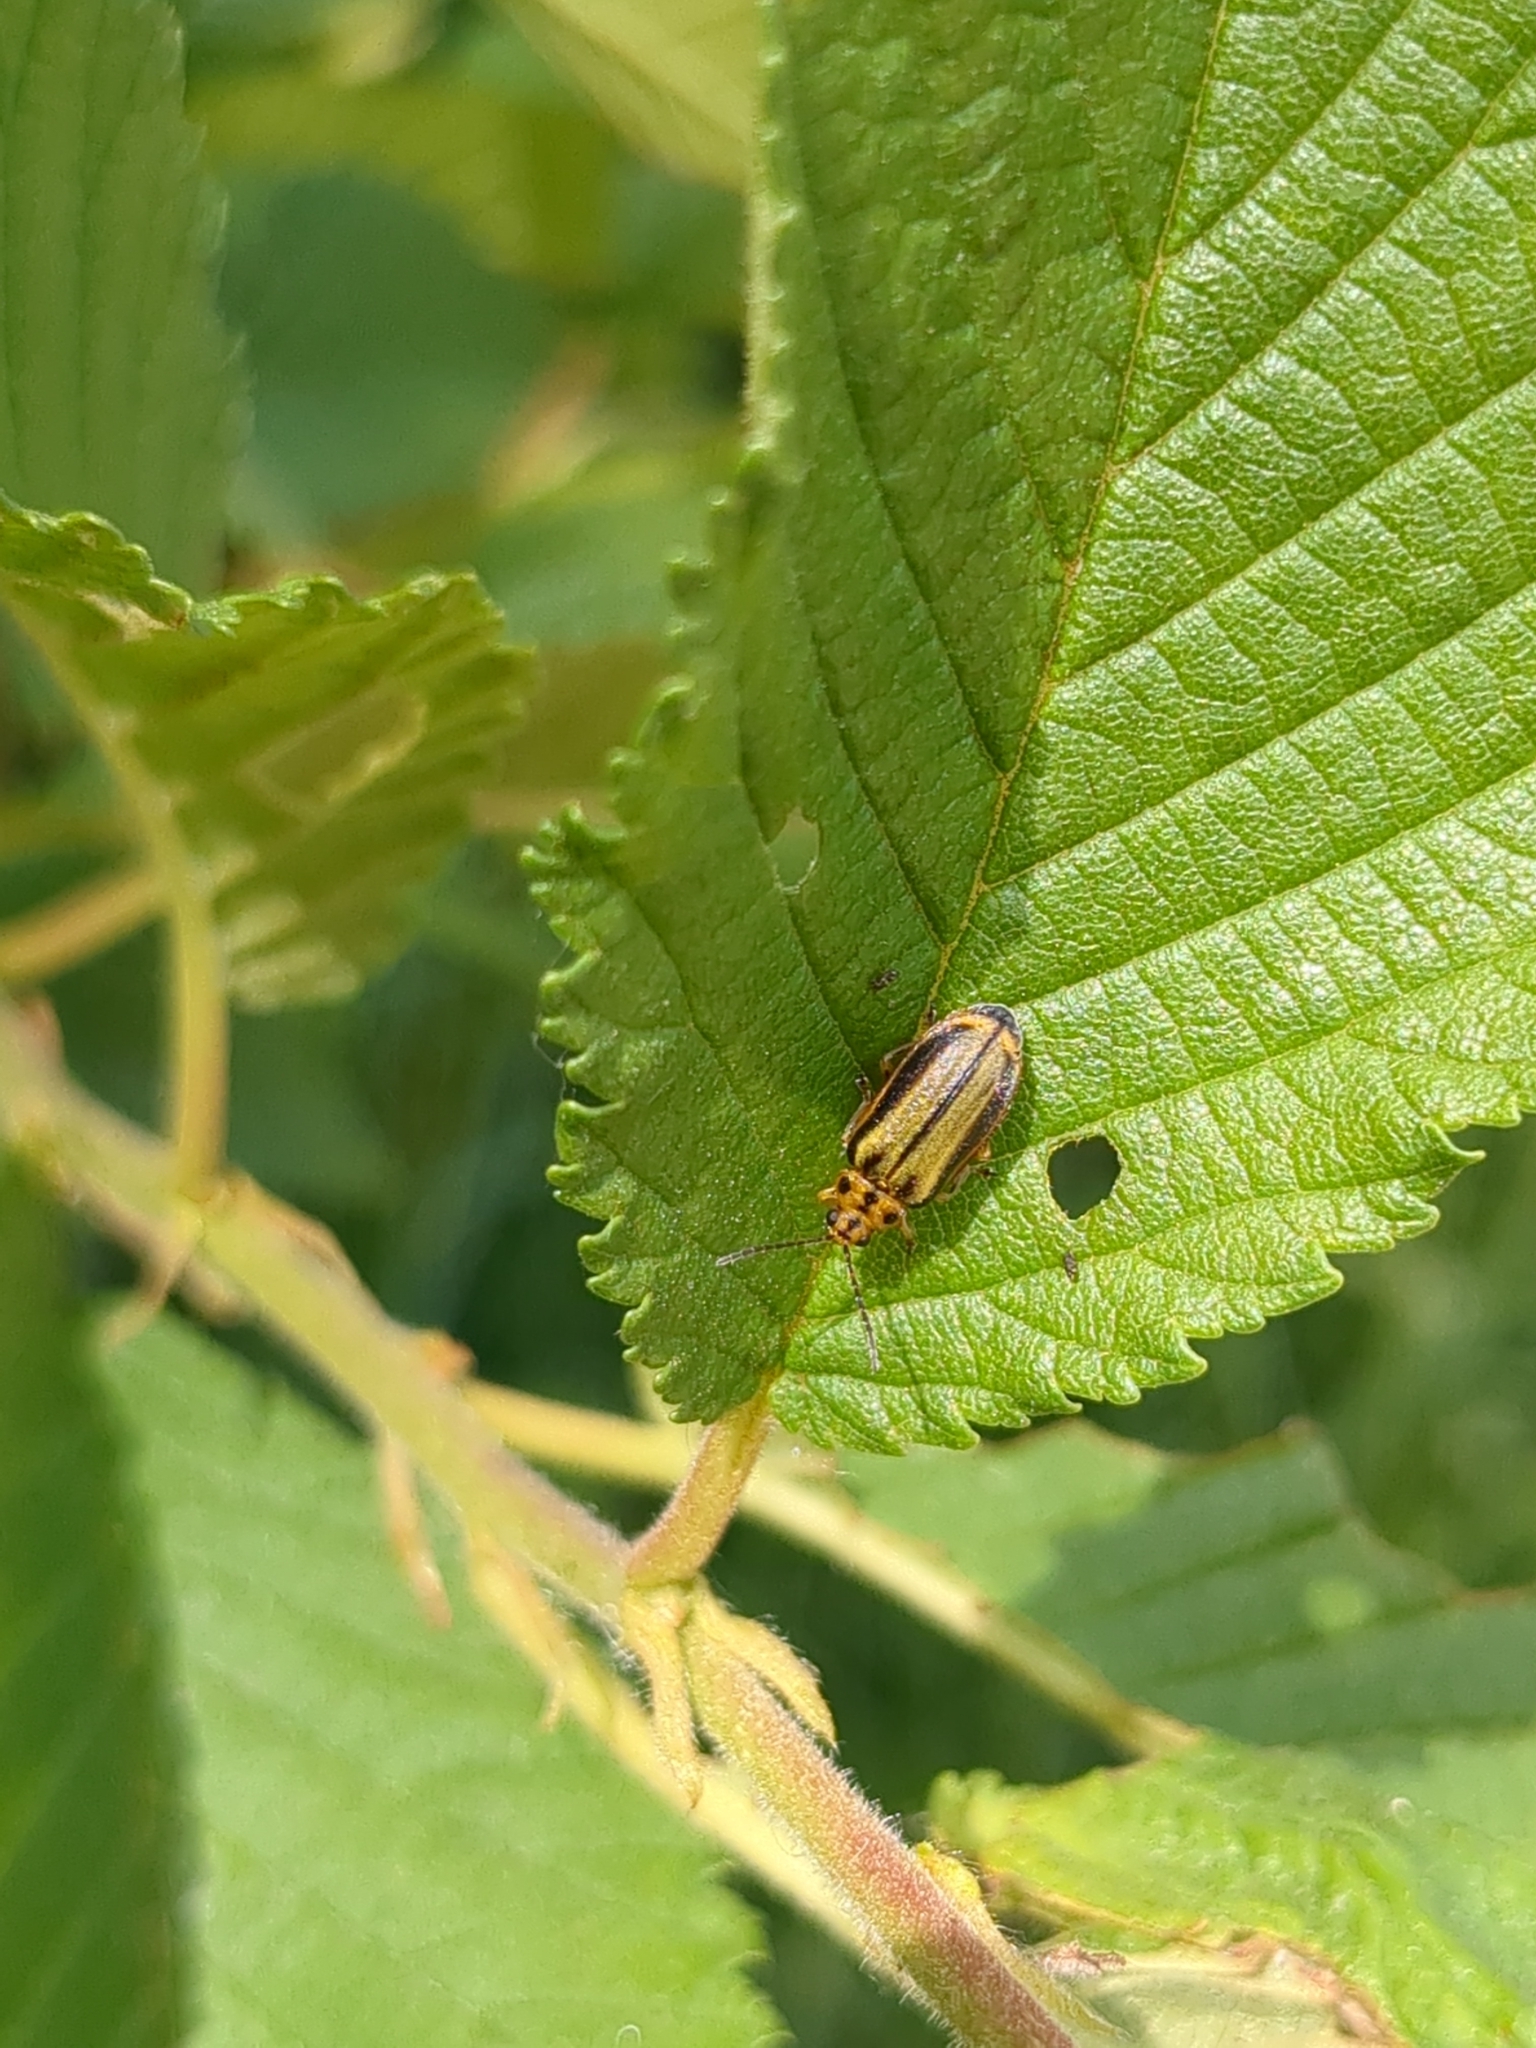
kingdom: Animalia
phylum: Arthropoda
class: Insecta
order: Coleoptera
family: Chrysomelidae
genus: Xanthogaleruca
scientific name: Xanthogaleruca luteola
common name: Elm leaf beetle
